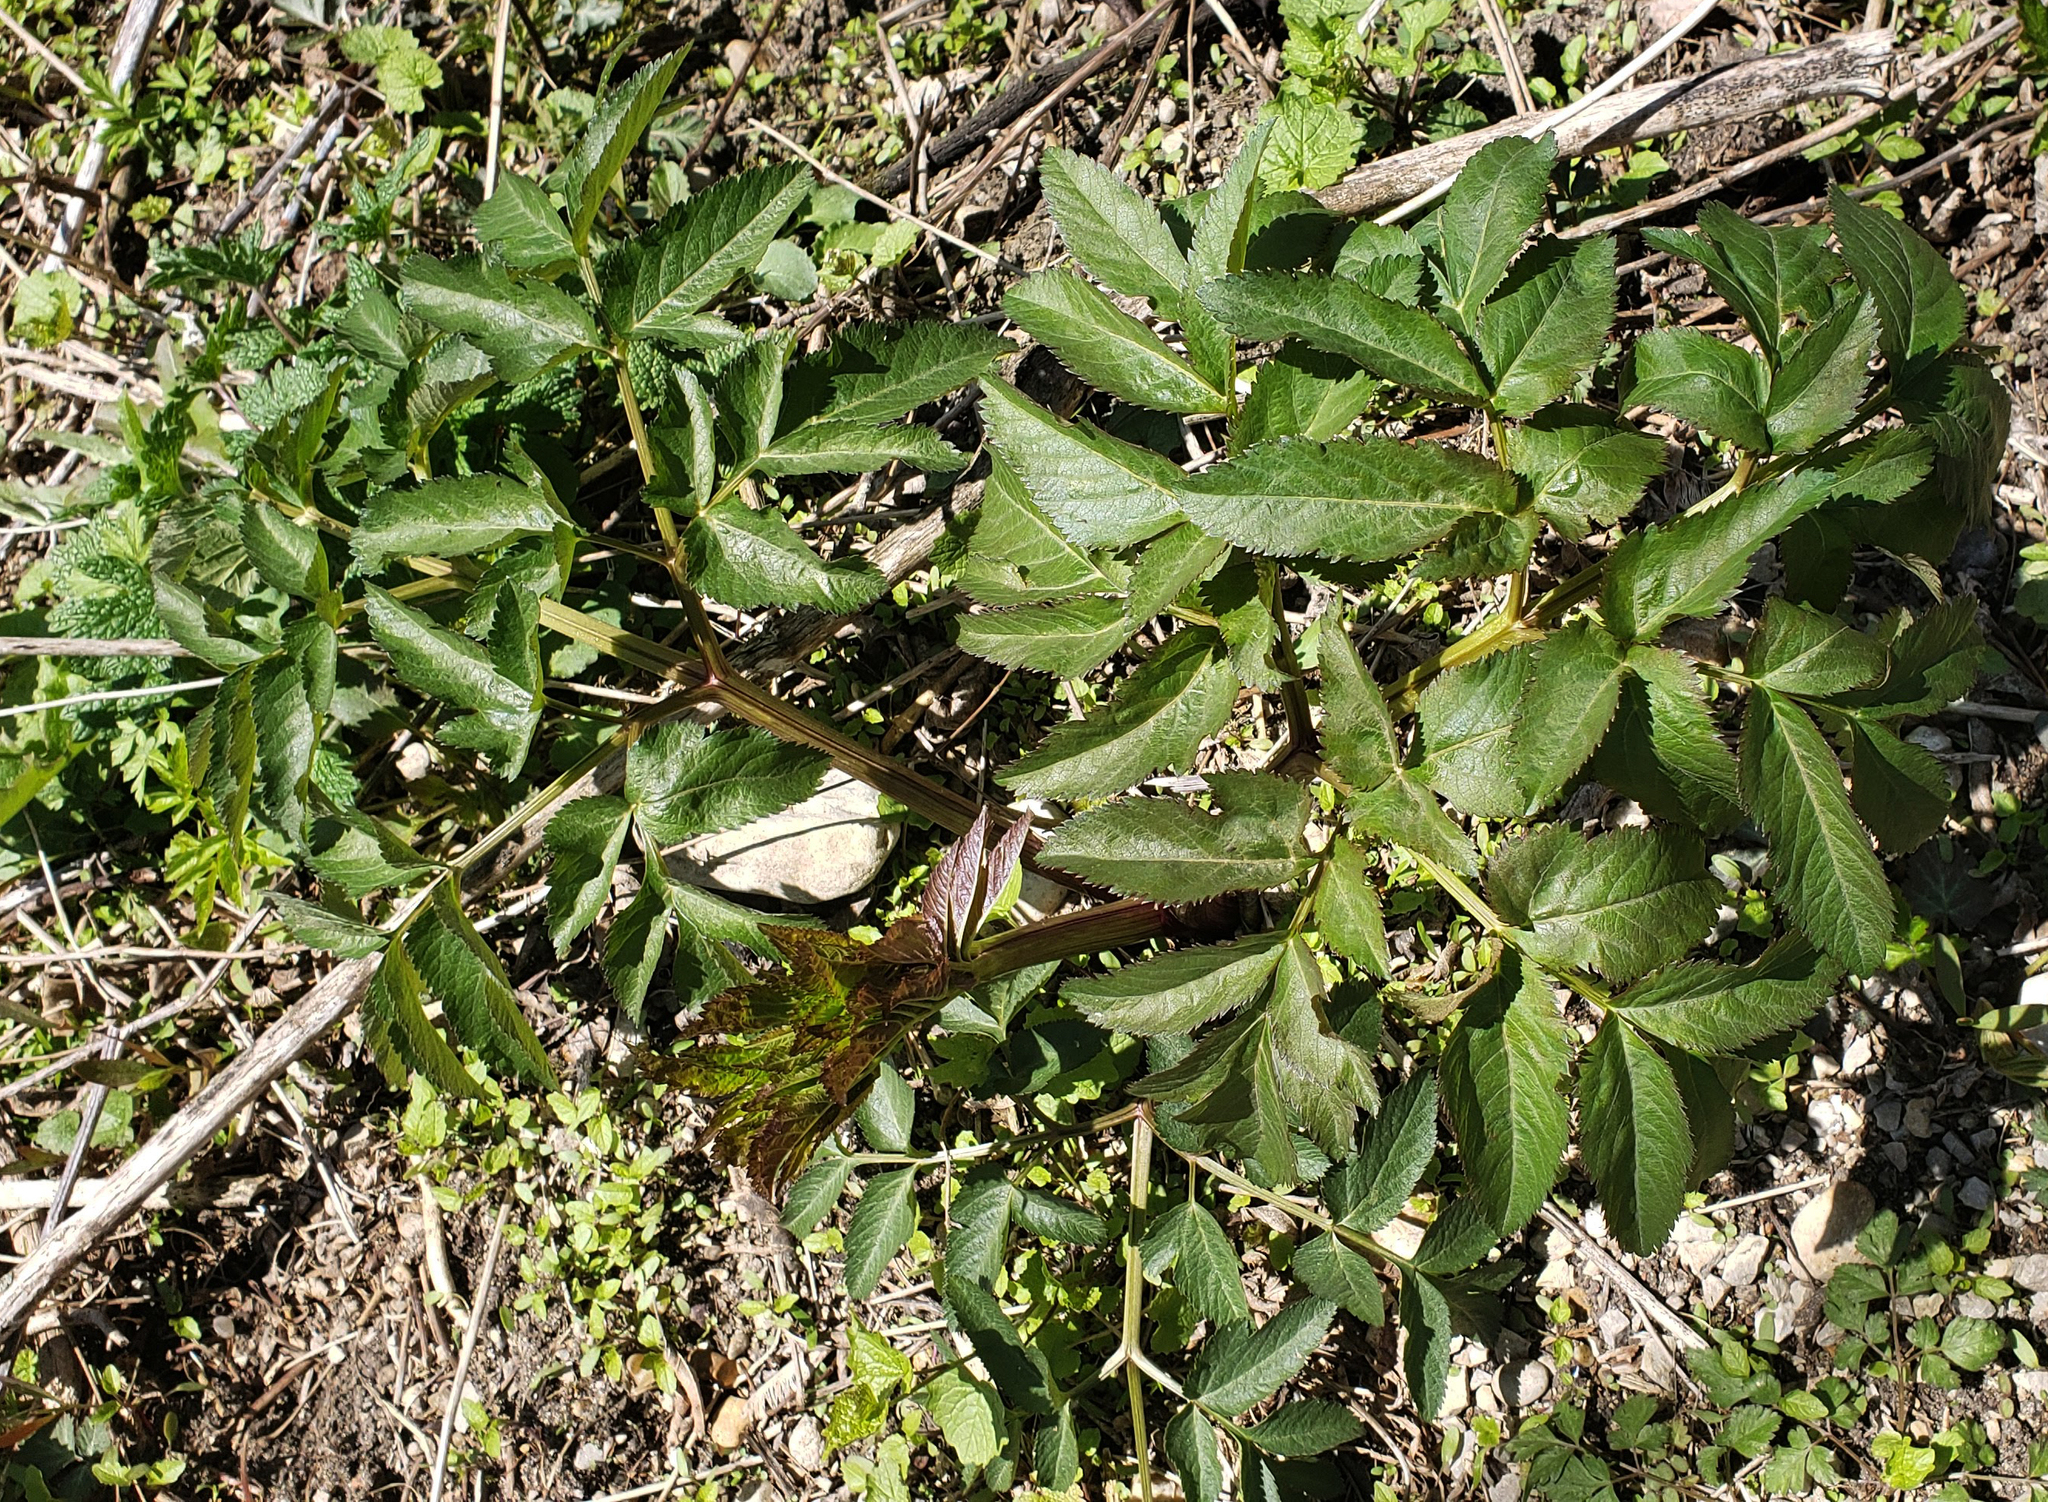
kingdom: Plantae
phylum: Tracheophyta
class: Magnoliopsida
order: Apiales
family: Apiaceae
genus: Angelica
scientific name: Angelica atropurpurea
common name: Great angelica
